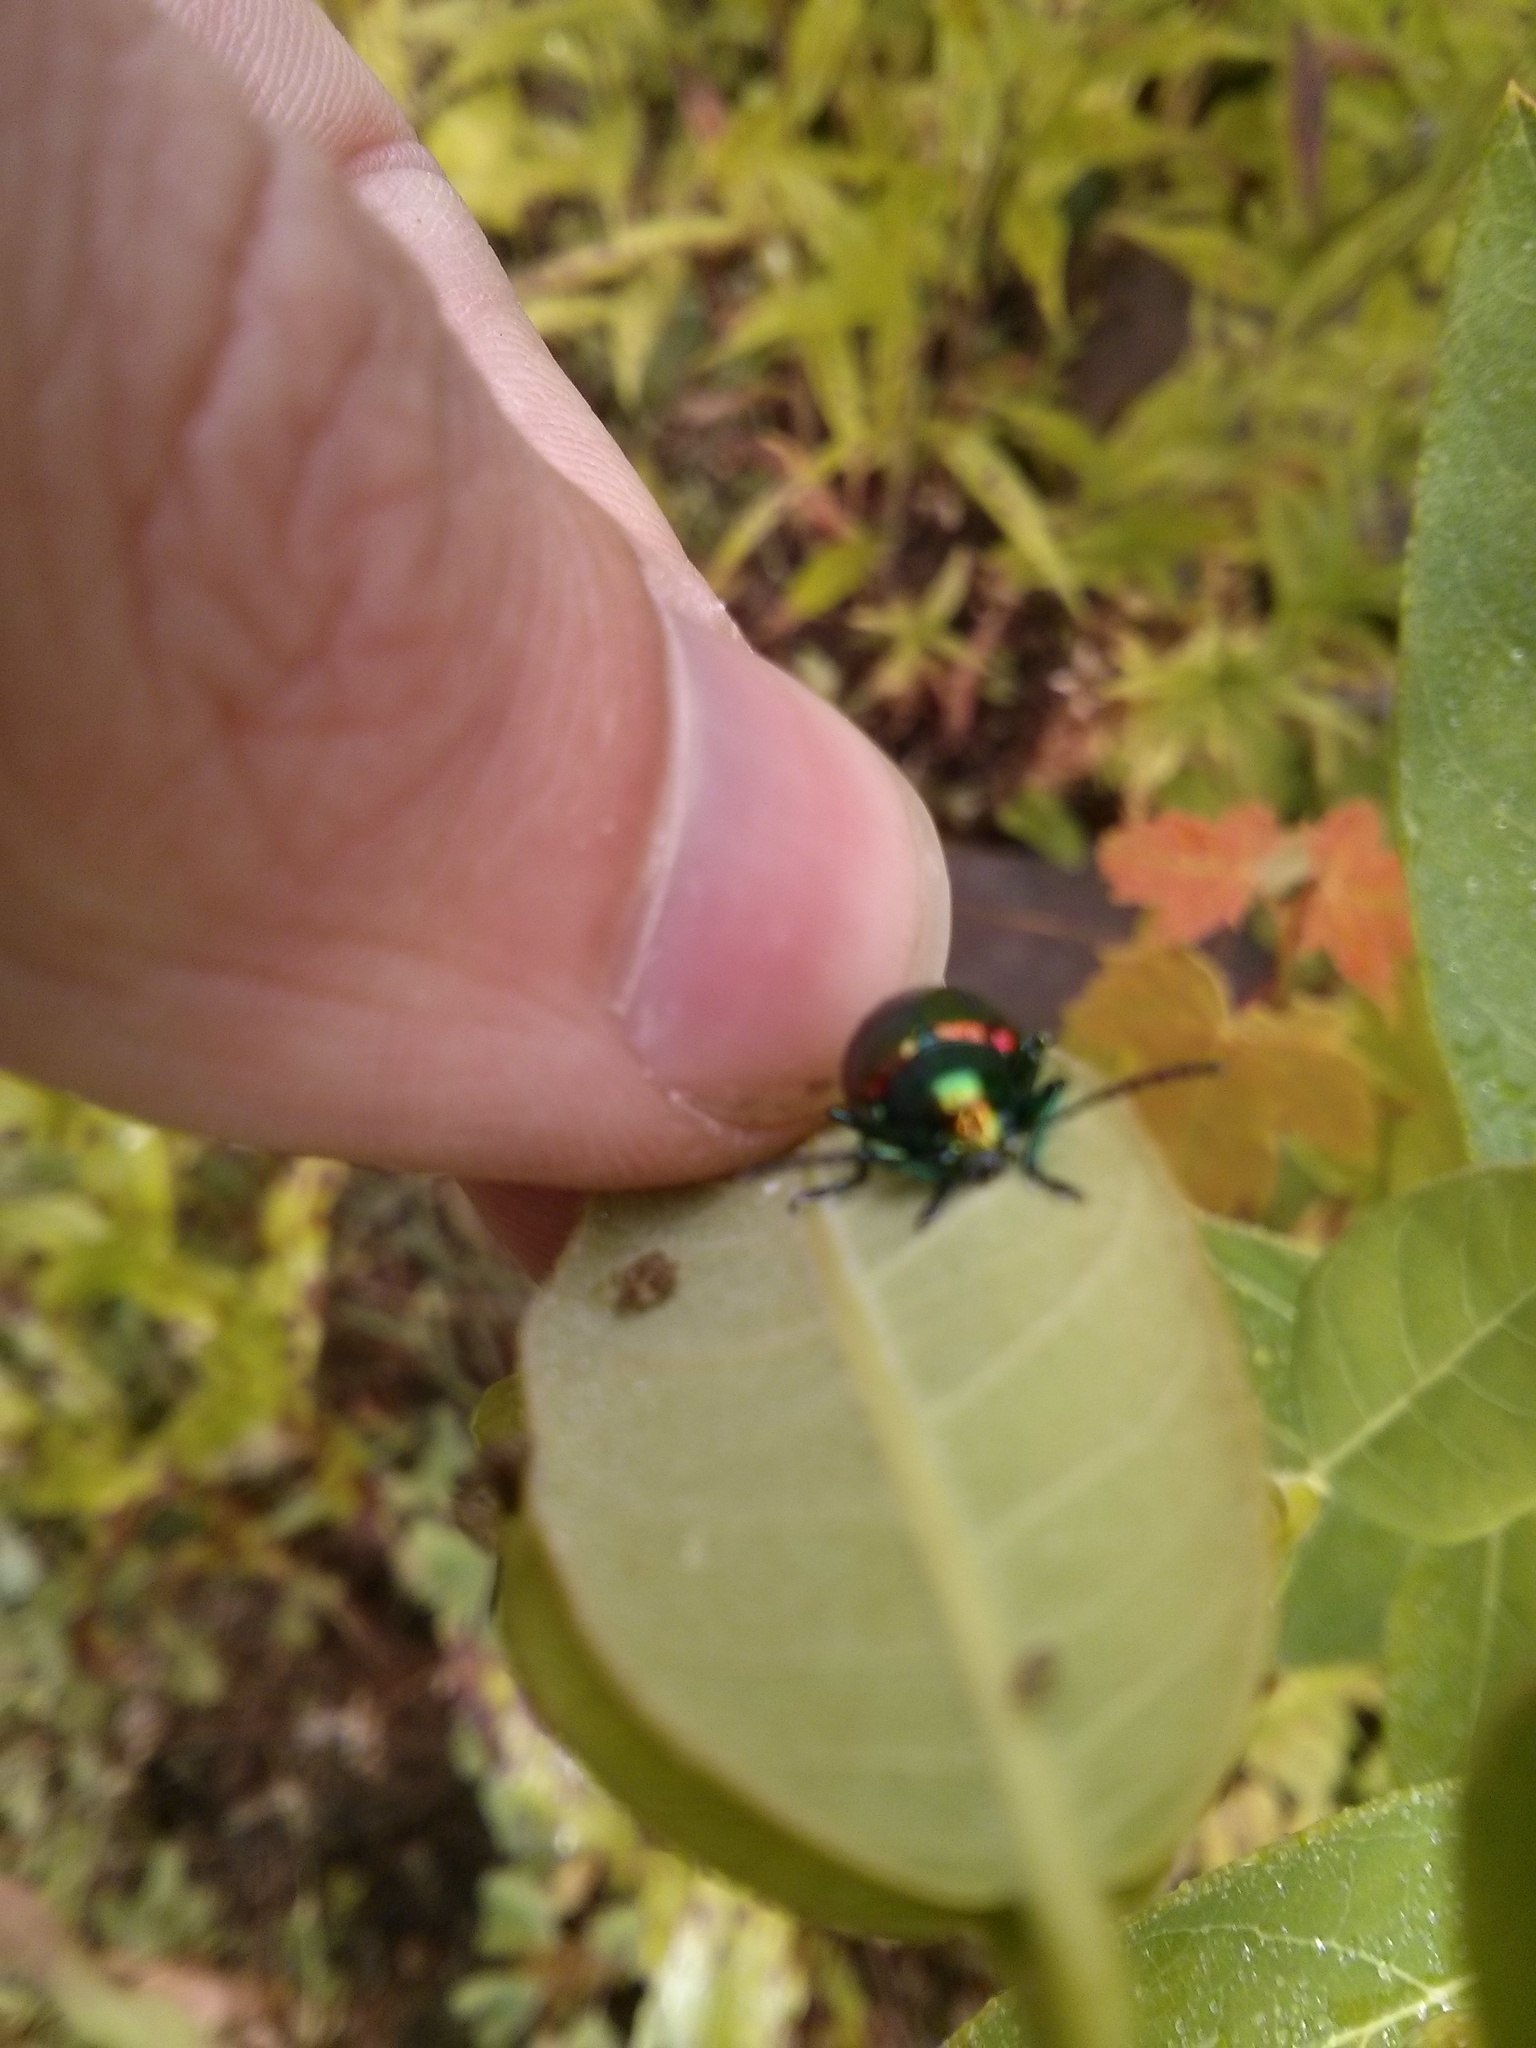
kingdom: Animalia
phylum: Arthropoda
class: Insecta
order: Coleoptera
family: Chrysomelidae
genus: Chrysochus
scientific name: Chrysochus auratus
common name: Dogbane leaf beetle
